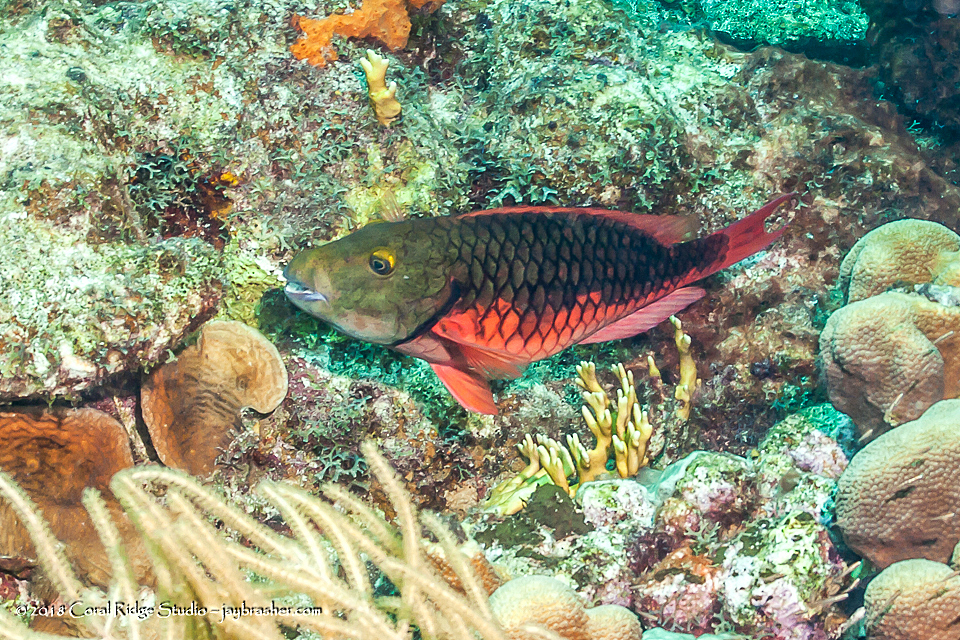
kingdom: Animalia
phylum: Chordata
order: Perciformes
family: Scaridae
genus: Sparisoma
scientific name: Sparisoma viride
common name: Stoplight parrotfish
